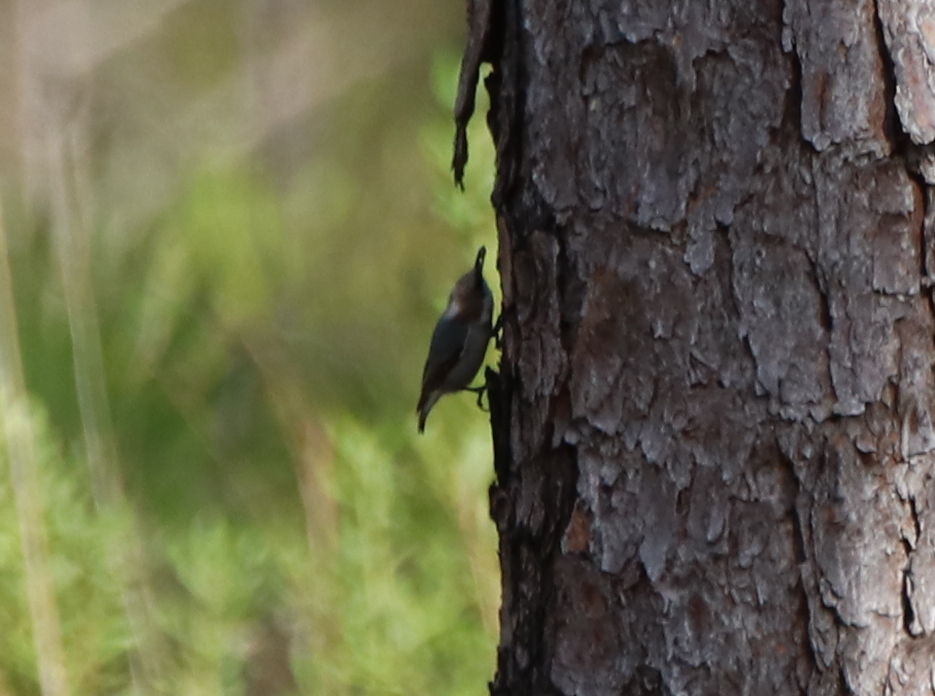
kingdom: Animalia
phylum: Chordata
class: Aves
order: Passeriformes
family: Sittidae
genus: Sitta
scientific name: Sitta pusilla
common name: Brown-headed nuthatch
